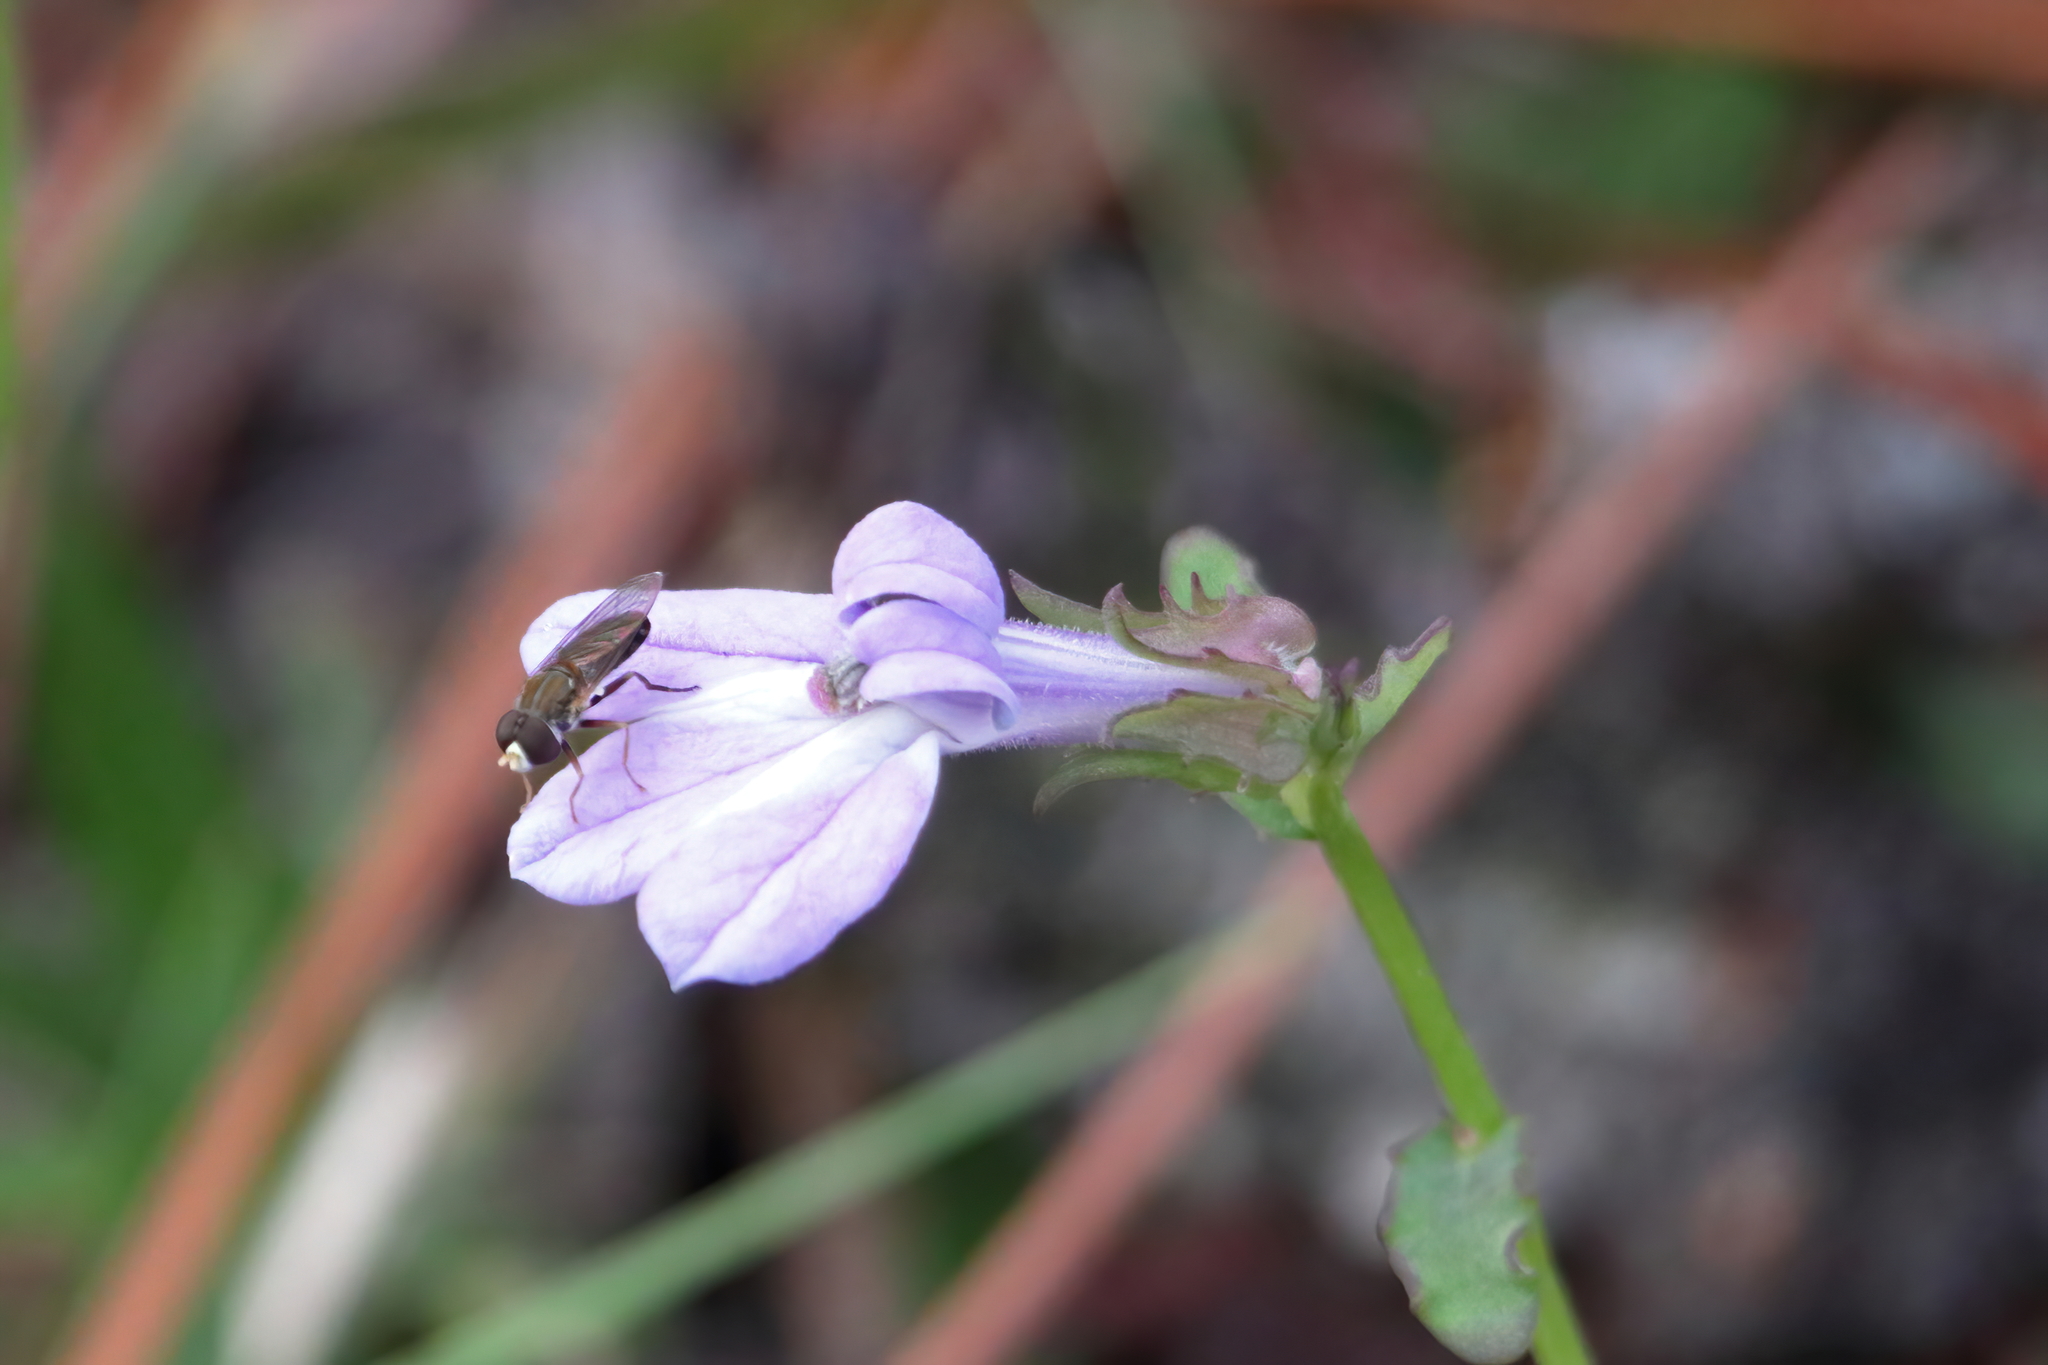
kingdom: Animalia
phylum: Arthropoda
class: Insecta
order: Diptera
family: Syrphidae
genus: Toxomerus
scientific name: Toxomerus marginatus
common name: Syrphid fly
